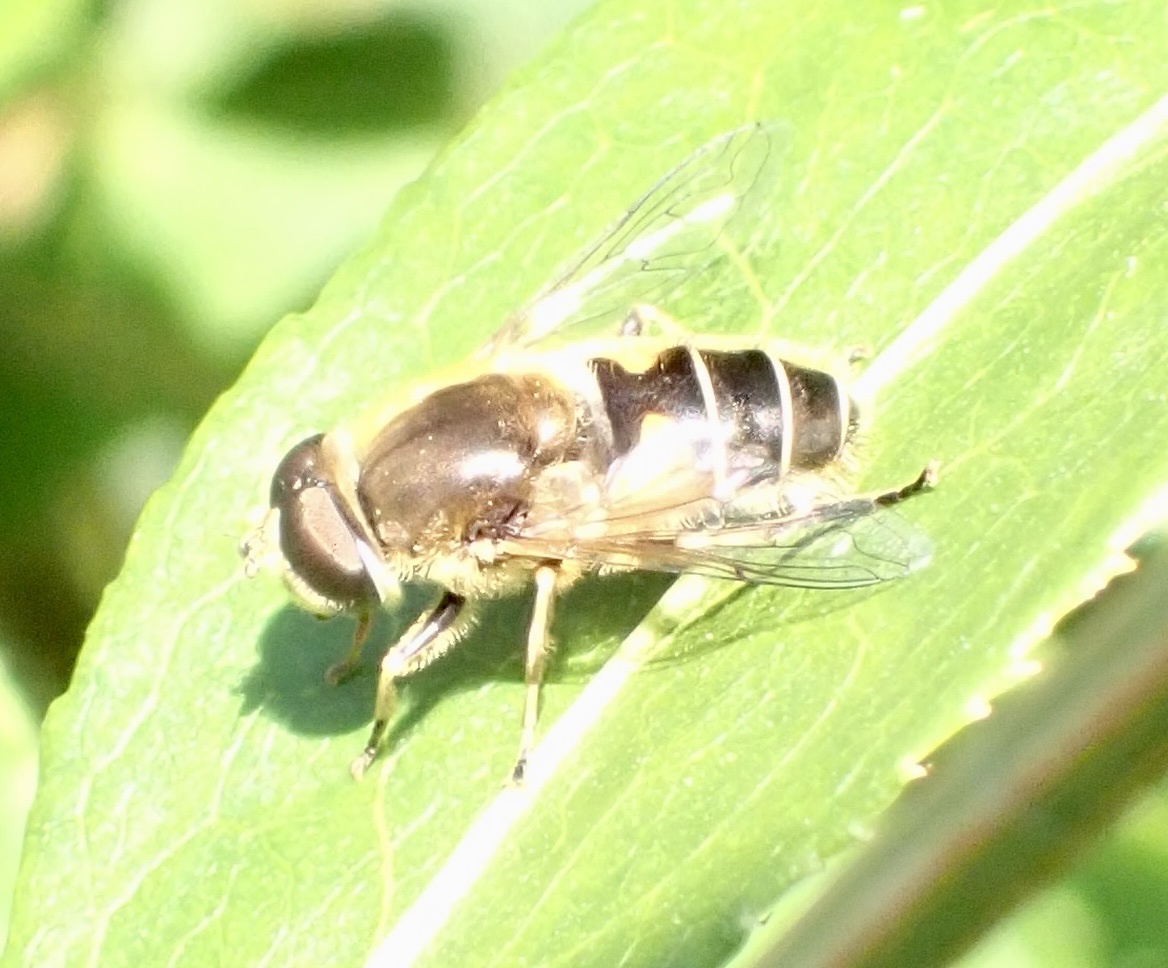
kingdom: Animalia
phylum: Arthropoda
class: Insecta
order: Diptera
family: Syrphidae
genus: Eristalis
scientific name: Eristalis nemorum
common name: Orange-spined drone fly
